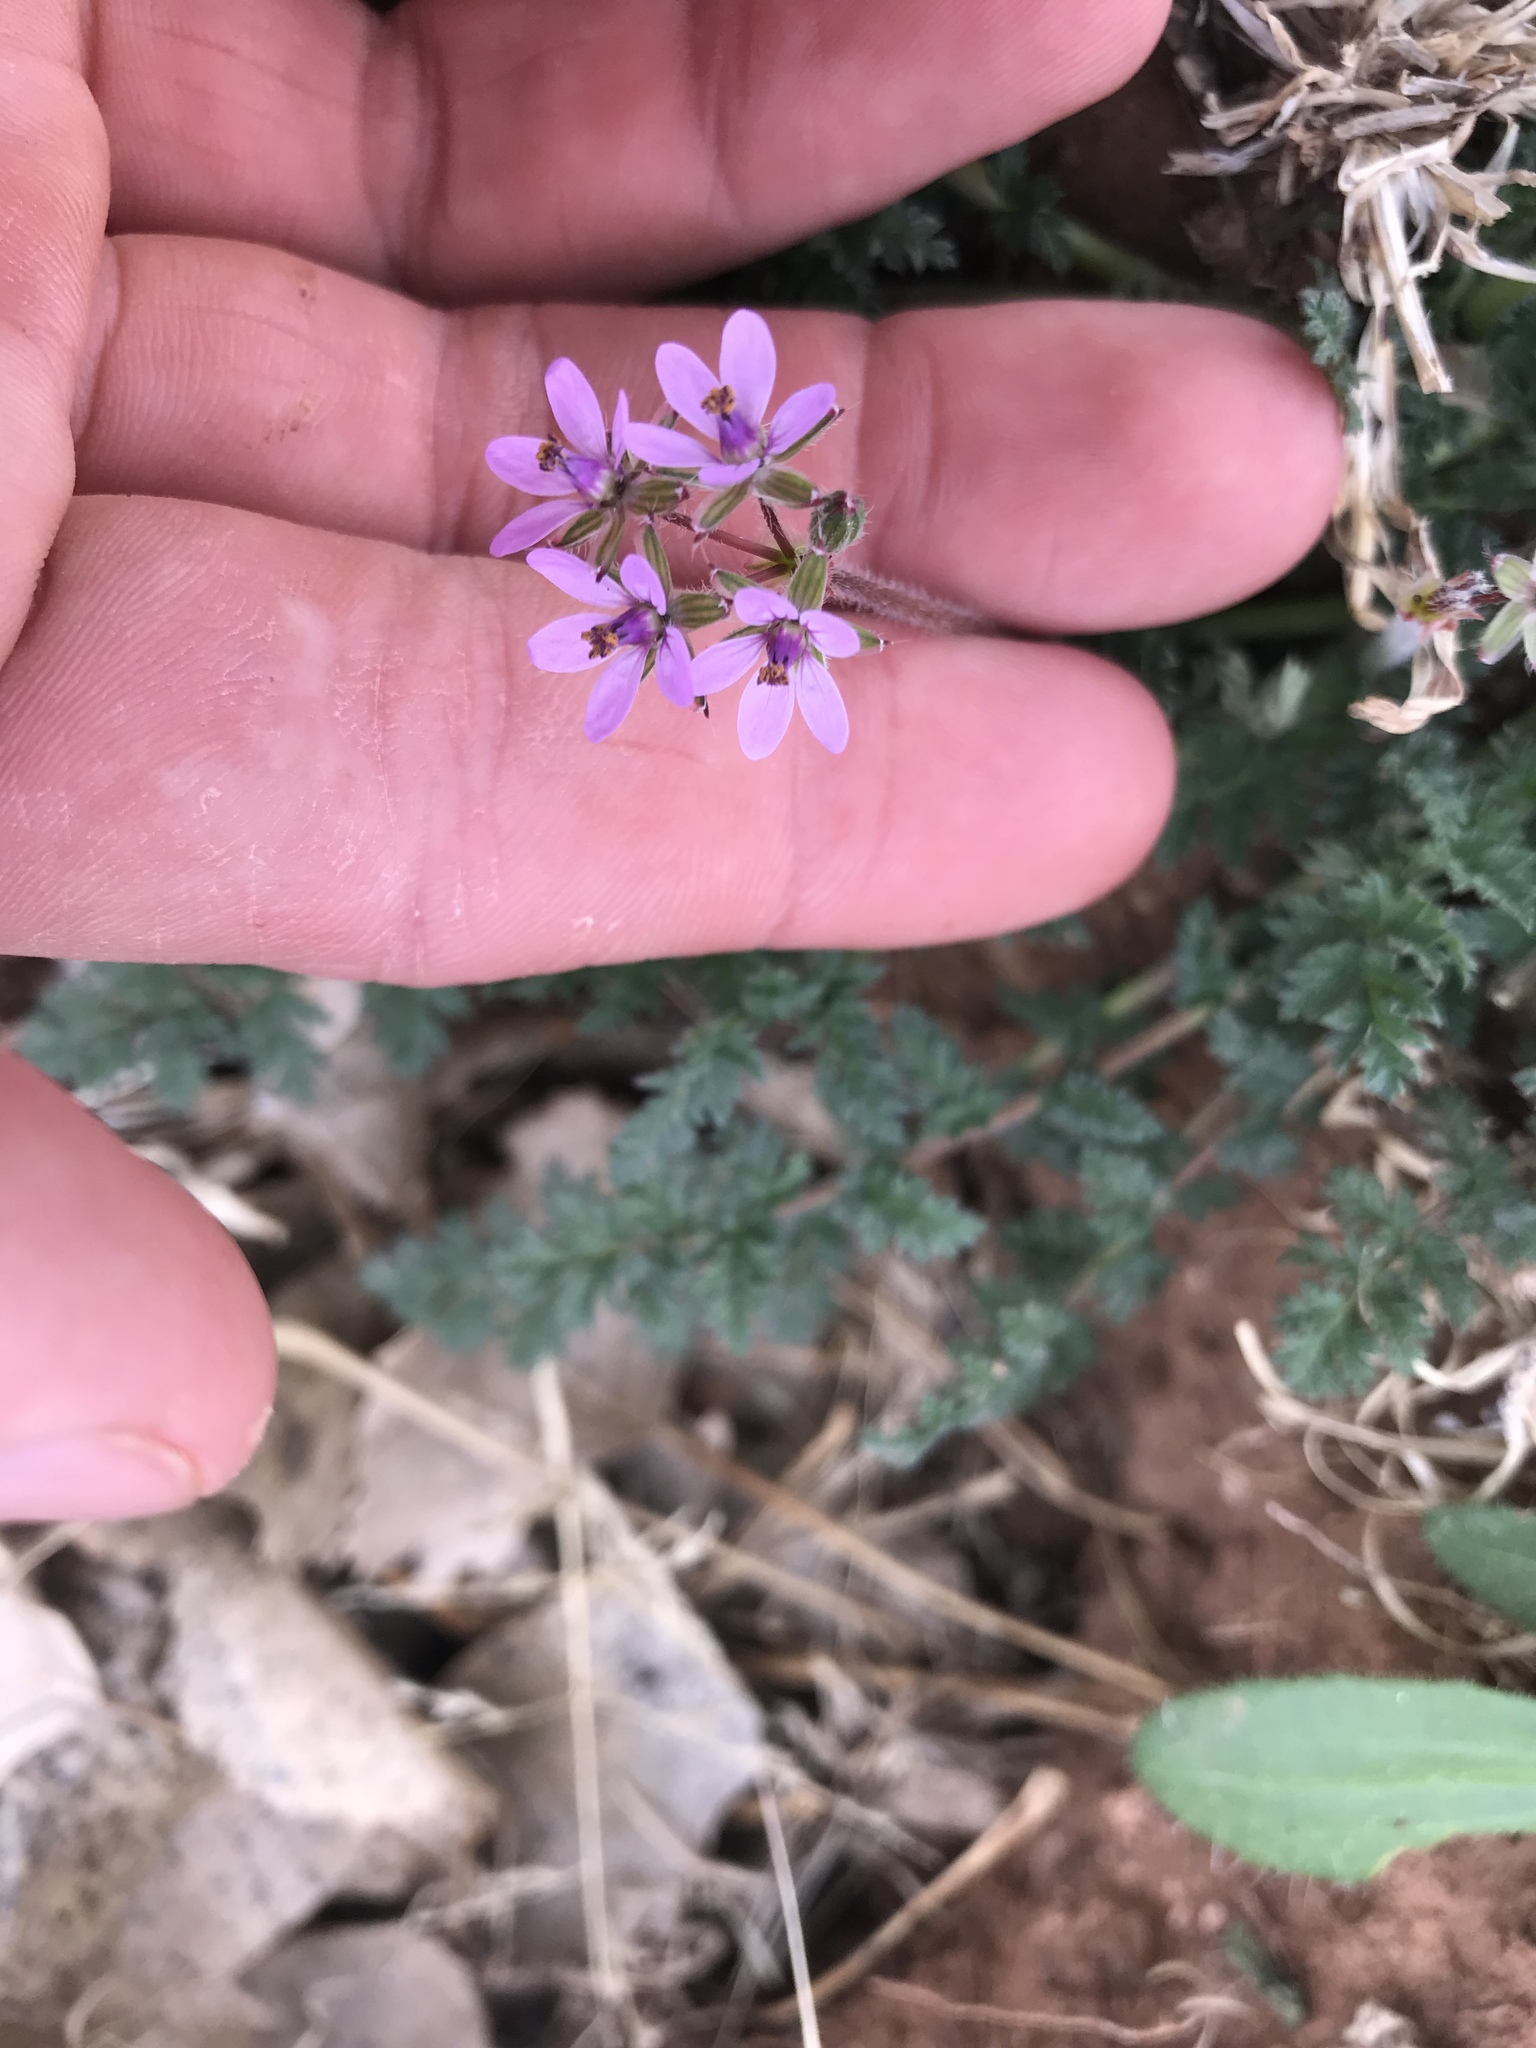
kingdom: Plantae
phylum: Tracheophyta
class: Magnoliopsida
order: Geraniales
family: Geraniaceae
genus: Erodium
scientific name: Erodium cicutarium
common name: Common stork's-bill
